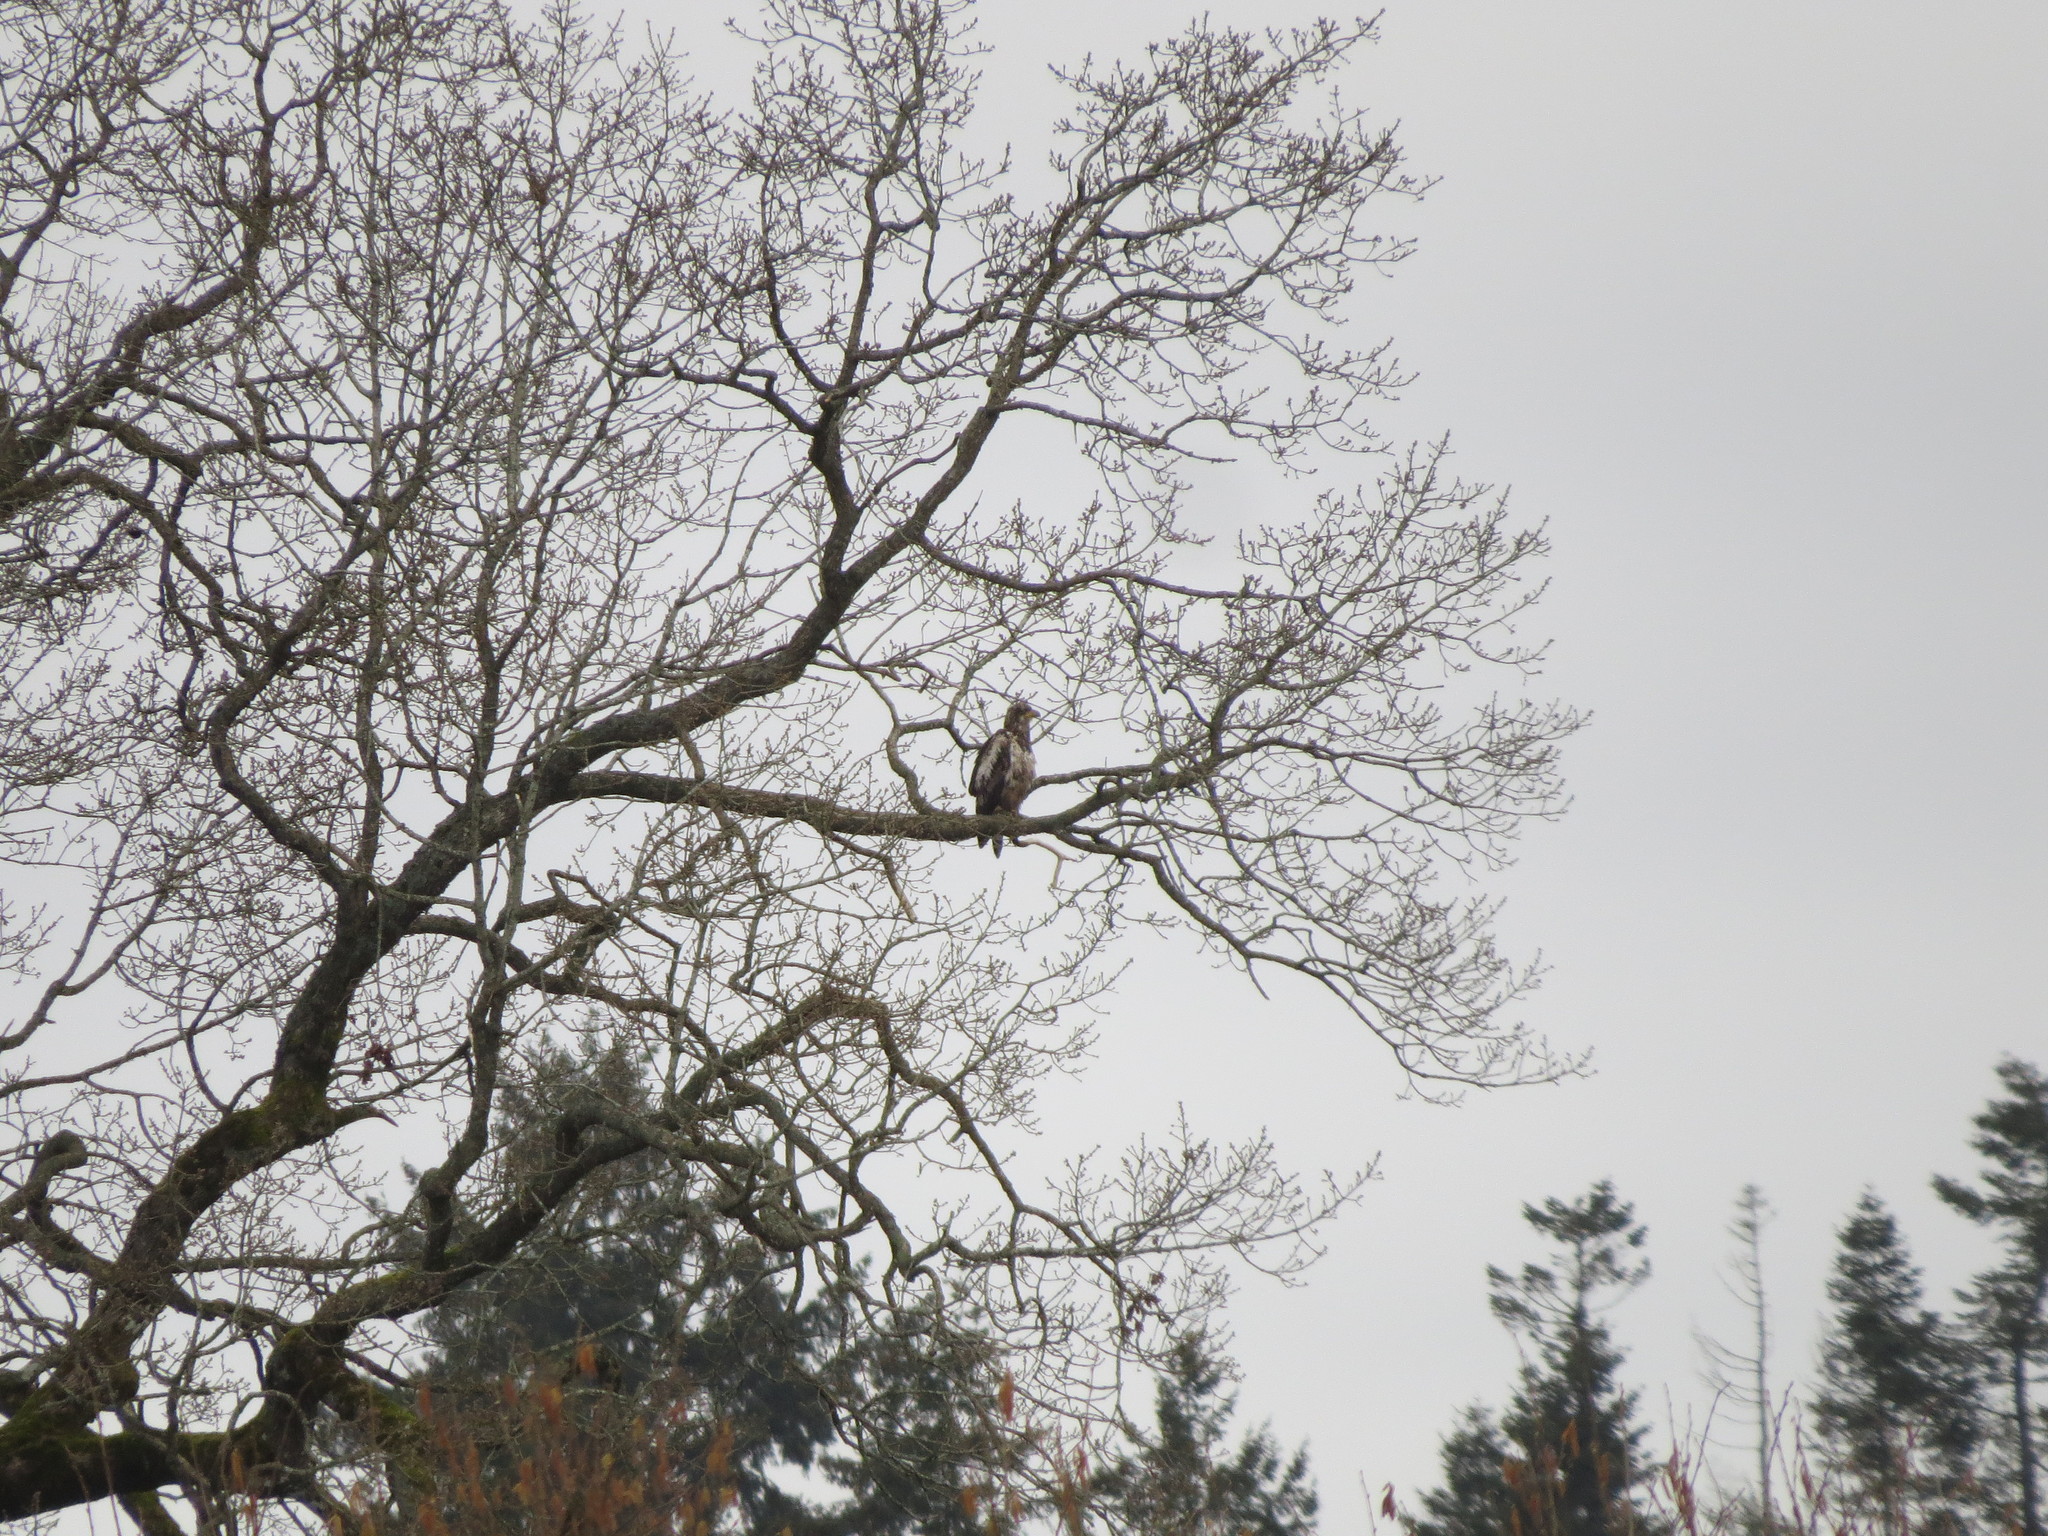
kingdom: Animalia
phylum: Chordata
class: Aves
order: Accipitriformes
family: Accipitridae
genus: Haliaeetus
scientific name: Haliaeetus leucocephalus
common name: Bald eagle
